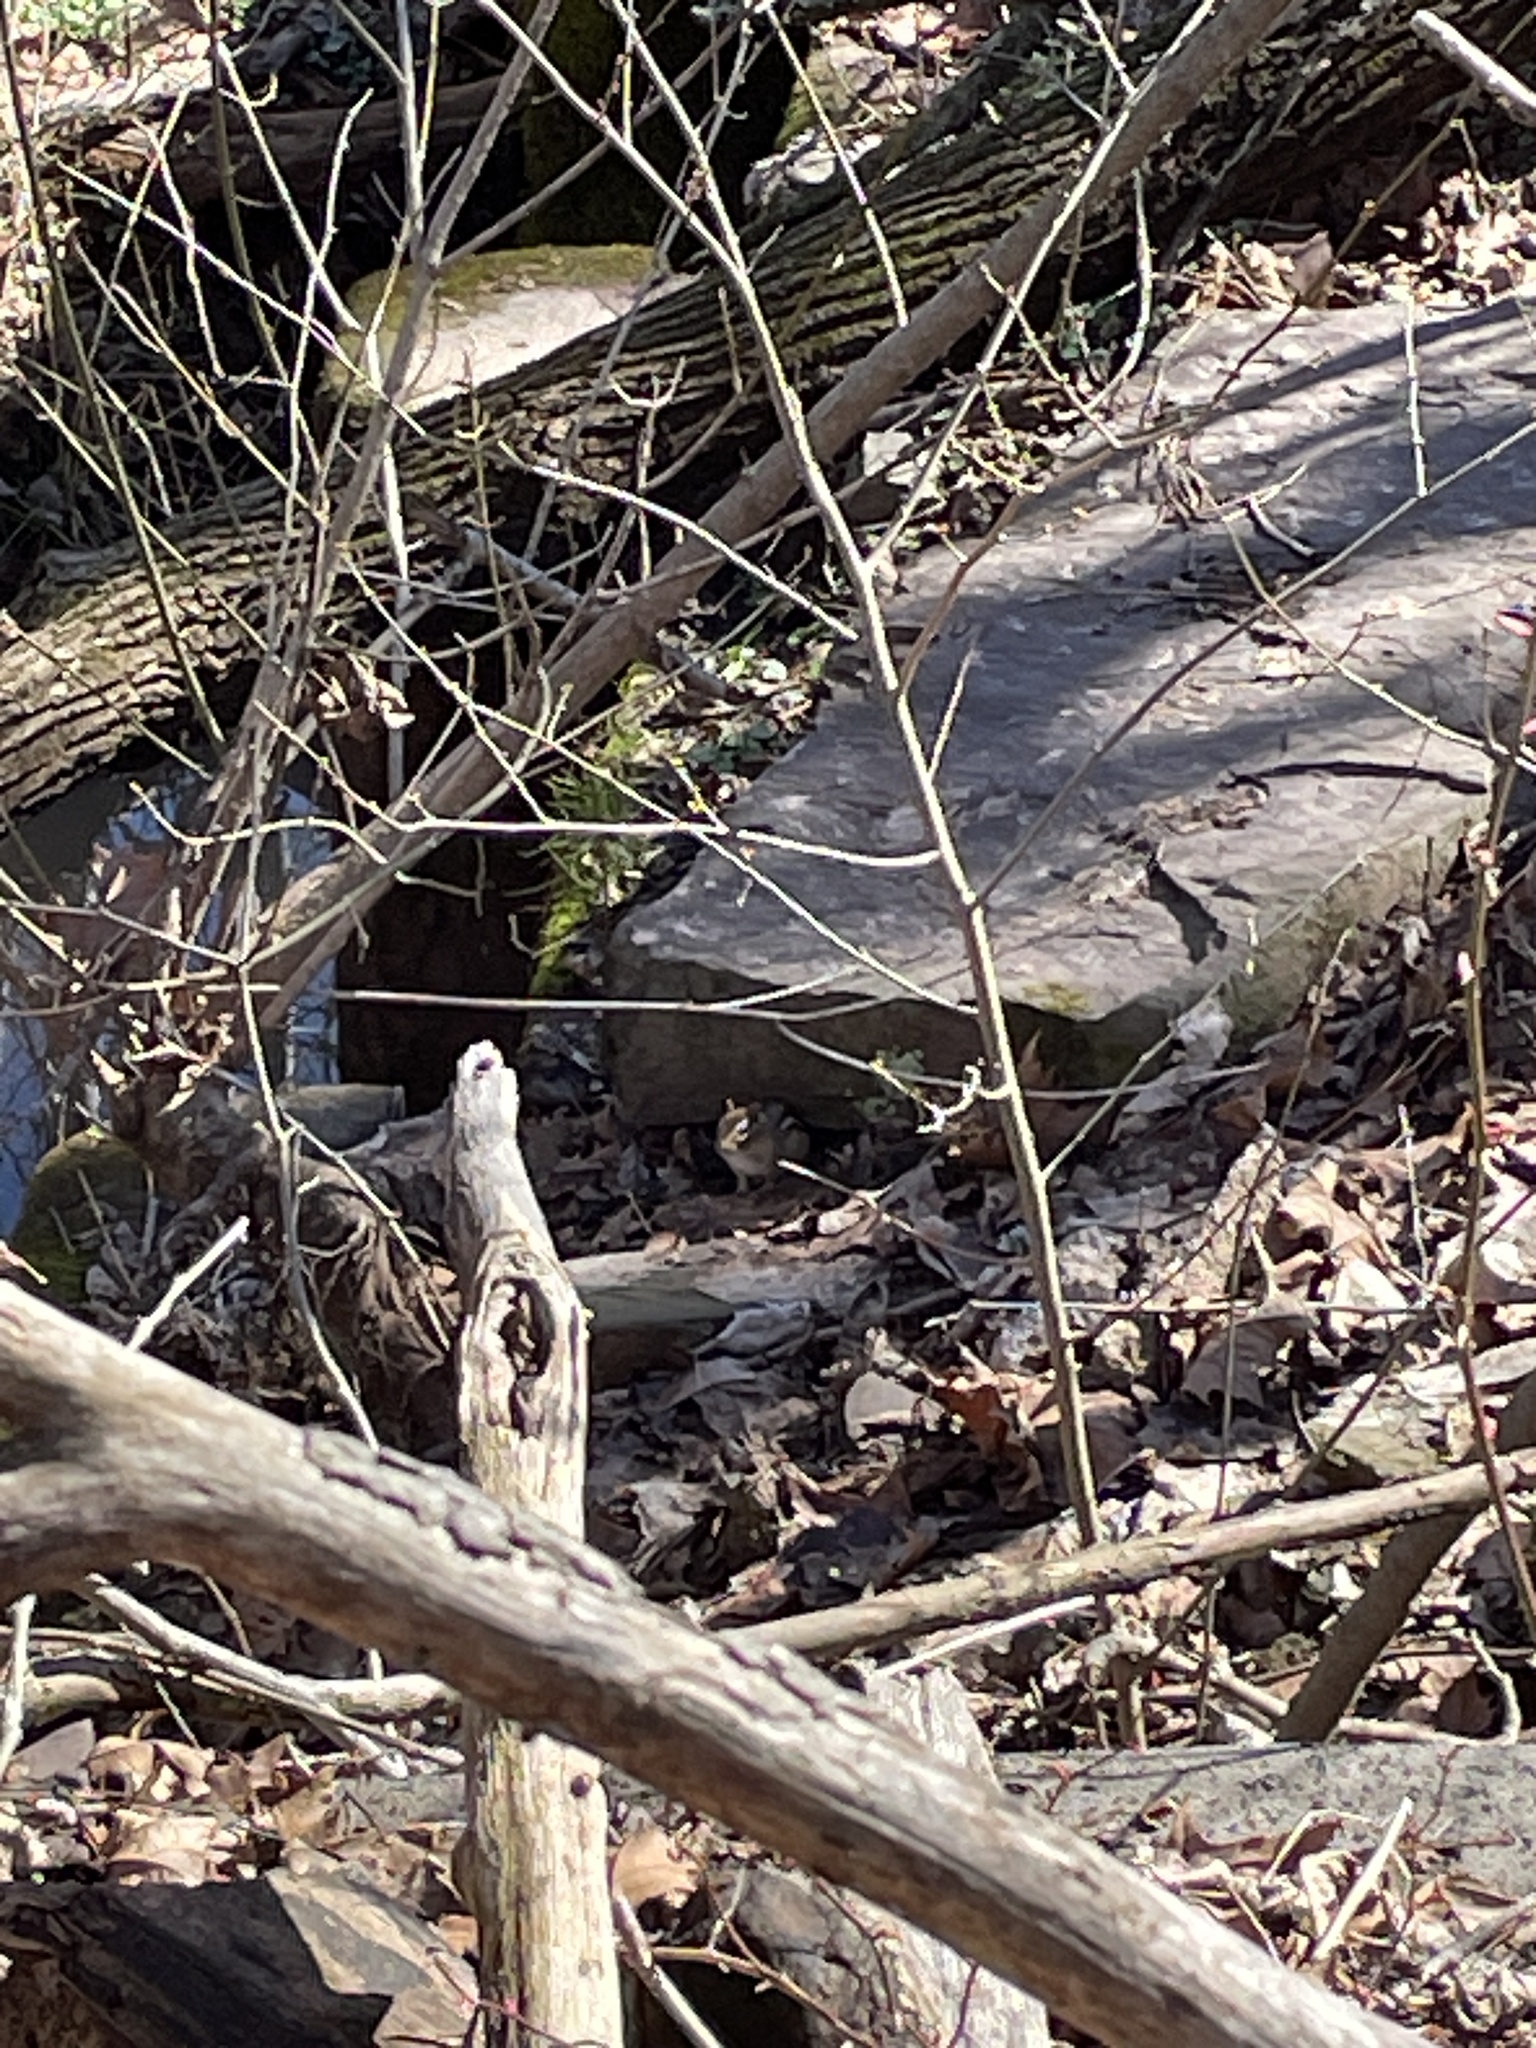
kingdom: Animalia
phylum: Chordata
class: Mammalia
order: Rodentia
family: Sciuridae
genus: Tamias
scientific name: Tamias striatus
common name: Eastern chipmunk
